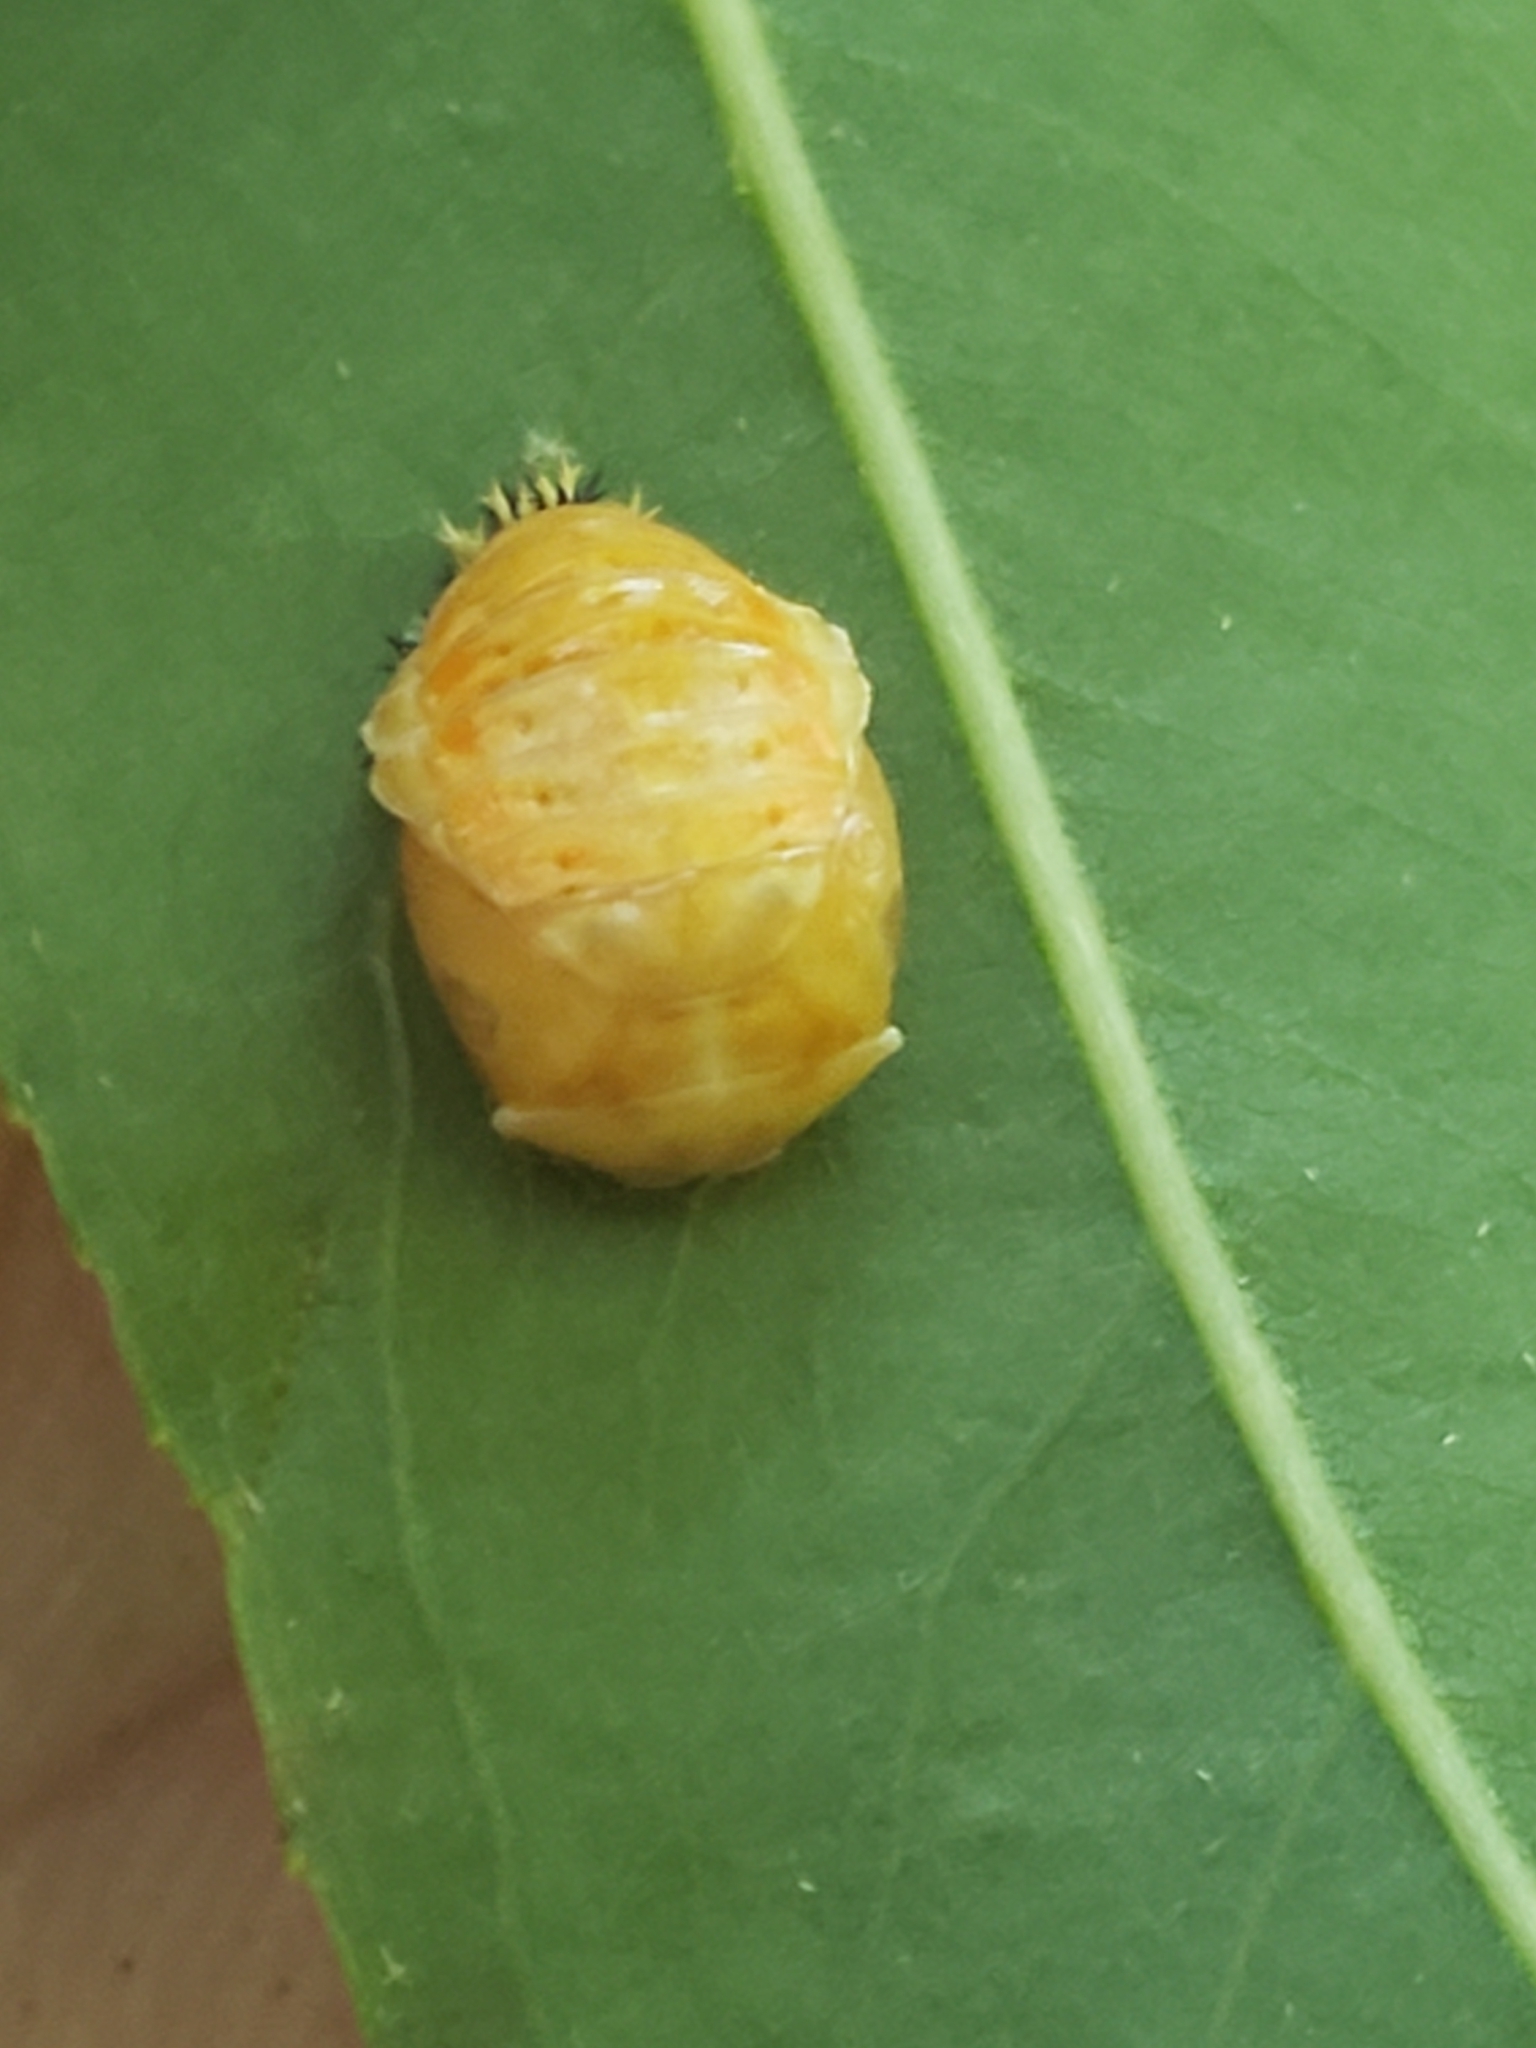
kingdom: Animalia
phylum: Arthropoda
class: Insecta
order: Coleoptera
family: Coccinellidae
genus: Harmonia
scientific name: Harmonia axyridis
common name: Harlequin ladybird
